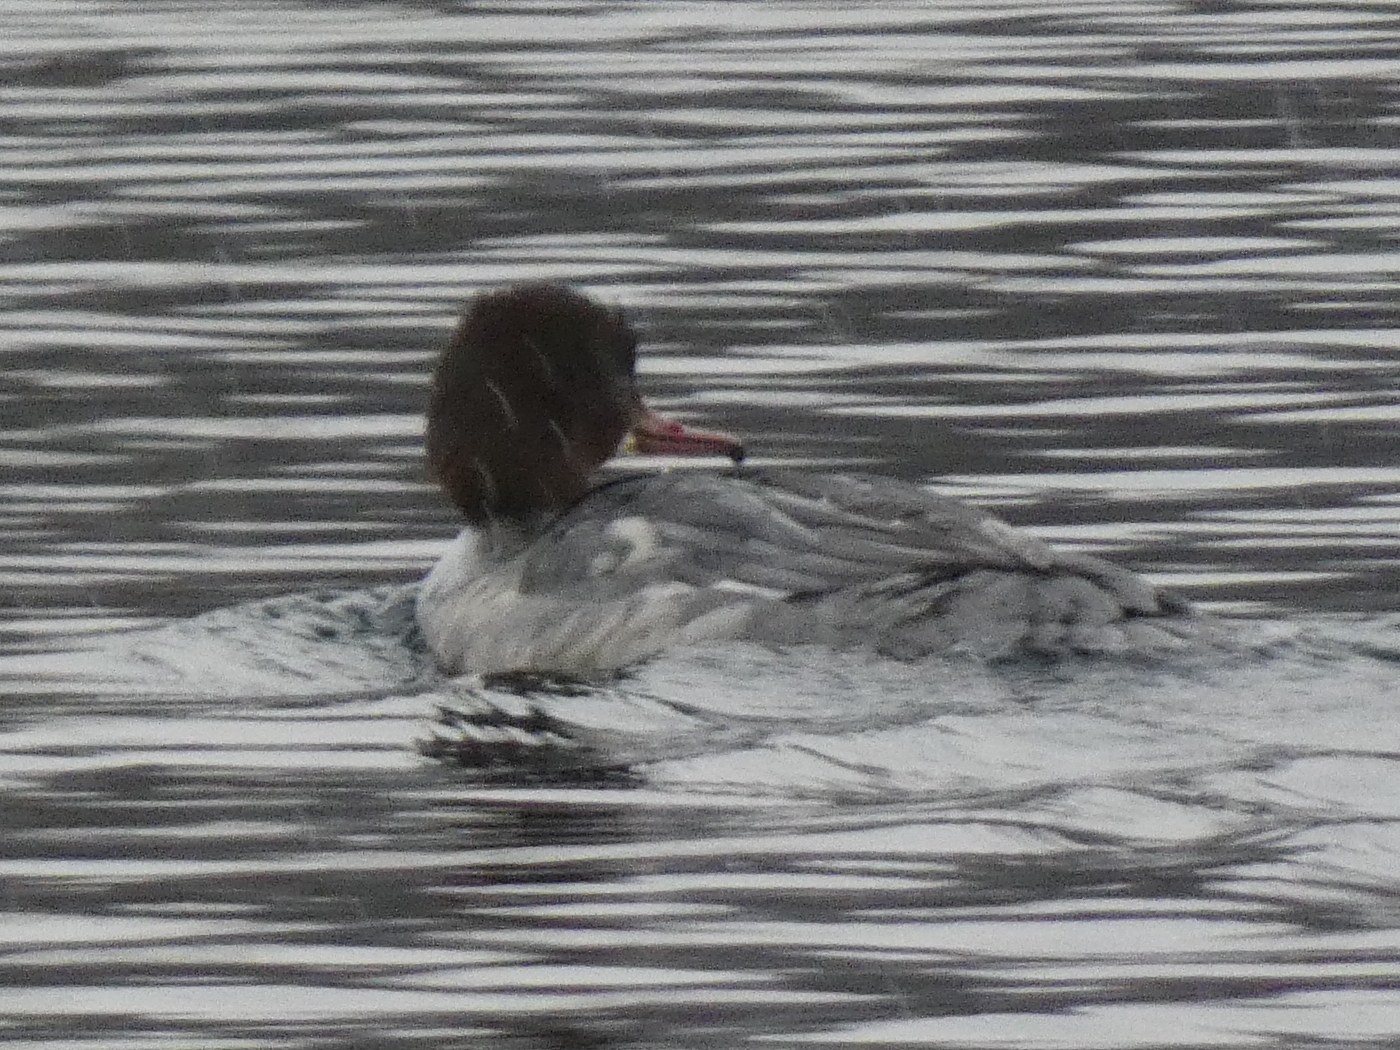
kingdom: Animalia
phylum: Chordata
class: Aves
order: Anseriformes
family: Anatidae
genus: Mergus
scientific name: Mergus merganser
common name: Common merganser
